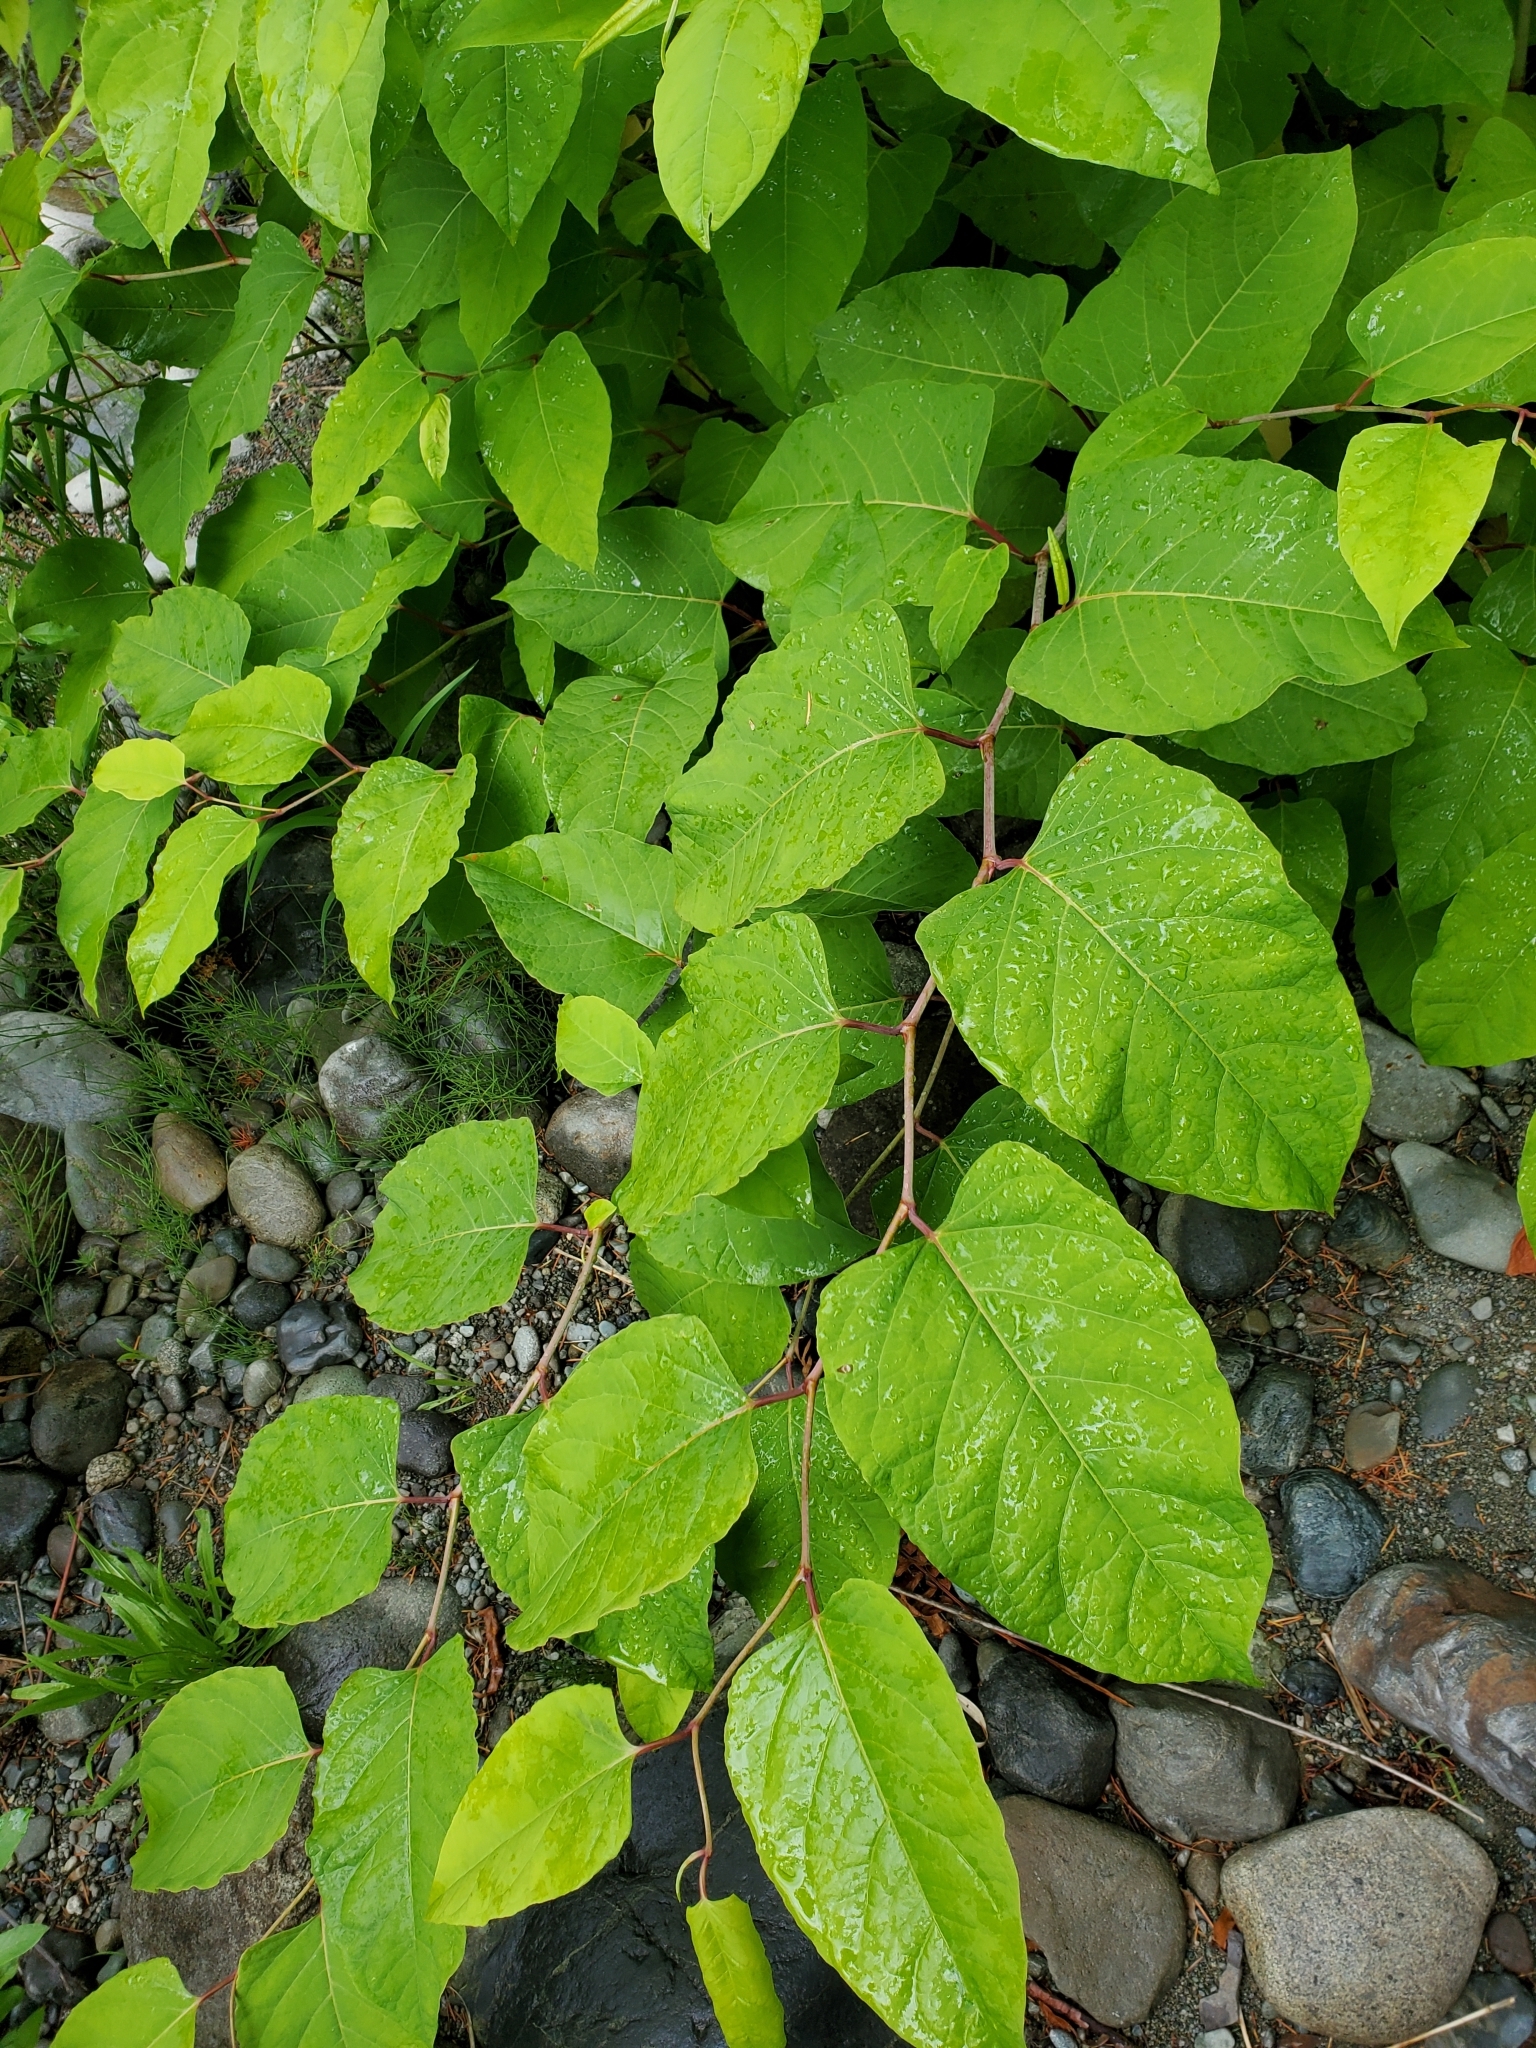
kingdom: Plantae
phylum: Tracheophyta
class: Magnoliopsida
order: Caryophyllales
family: Polygonaceae
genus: Reynoutria
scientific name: Reynoutria japonica
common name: Japanese knotweed
